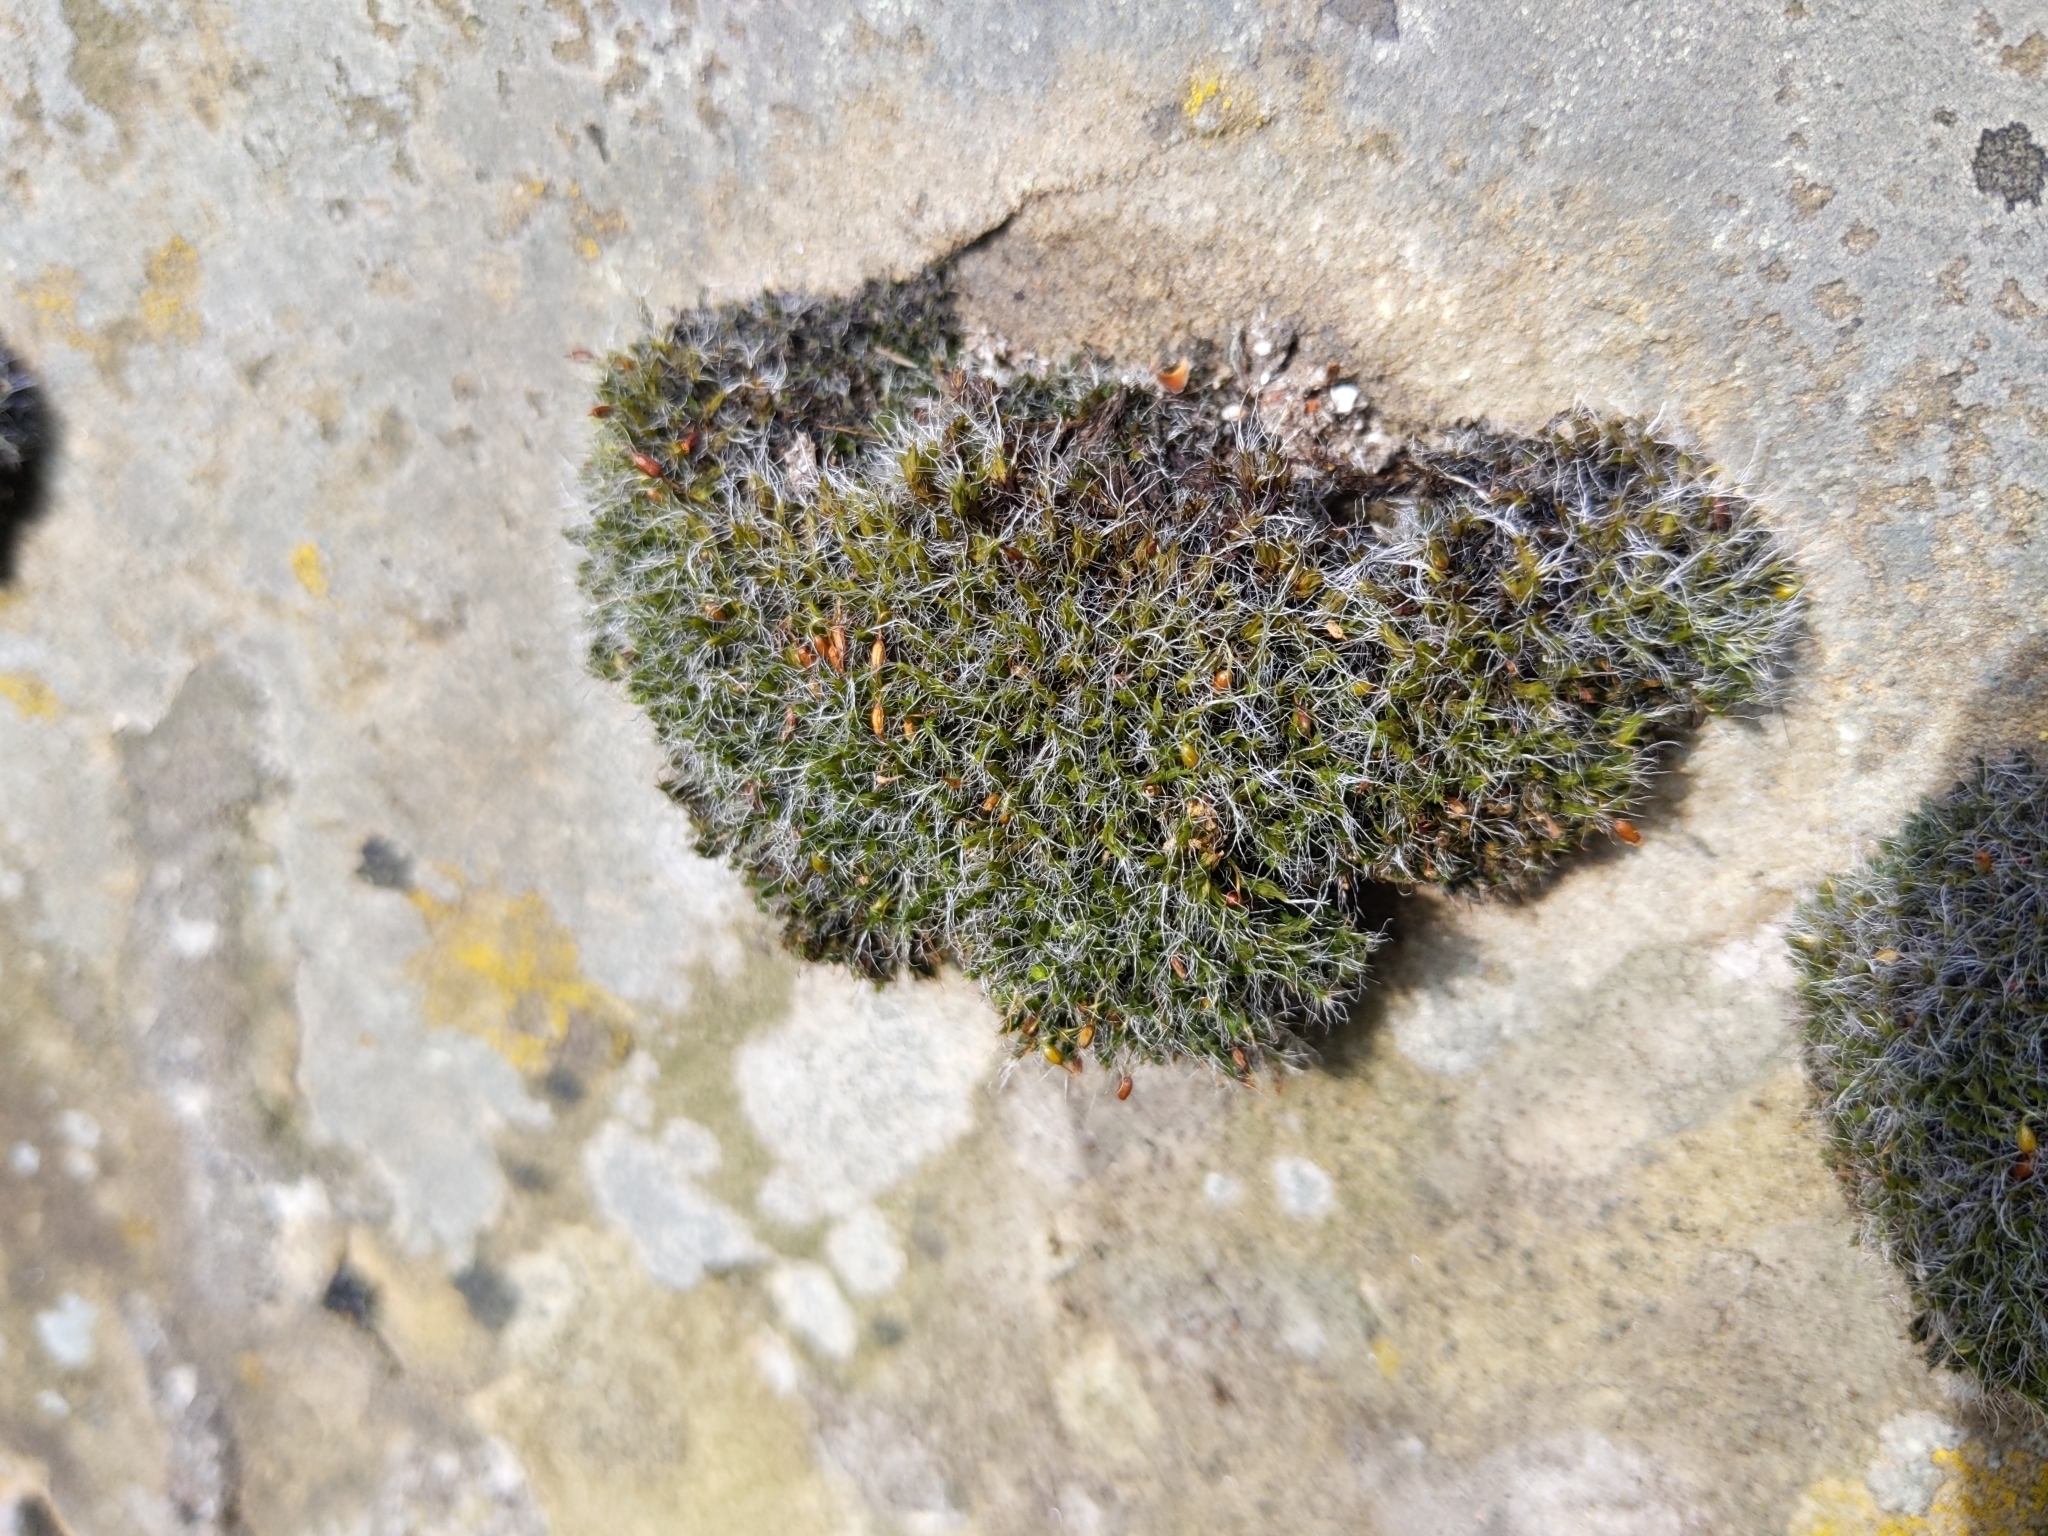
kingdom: Plantae
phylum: Bryophyta
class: Bryopsida
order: Grimmiales
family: Grimmiaceae
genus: Grimmia
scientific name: Grimmia pulvinata
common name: Grey-cushioned grimmia
